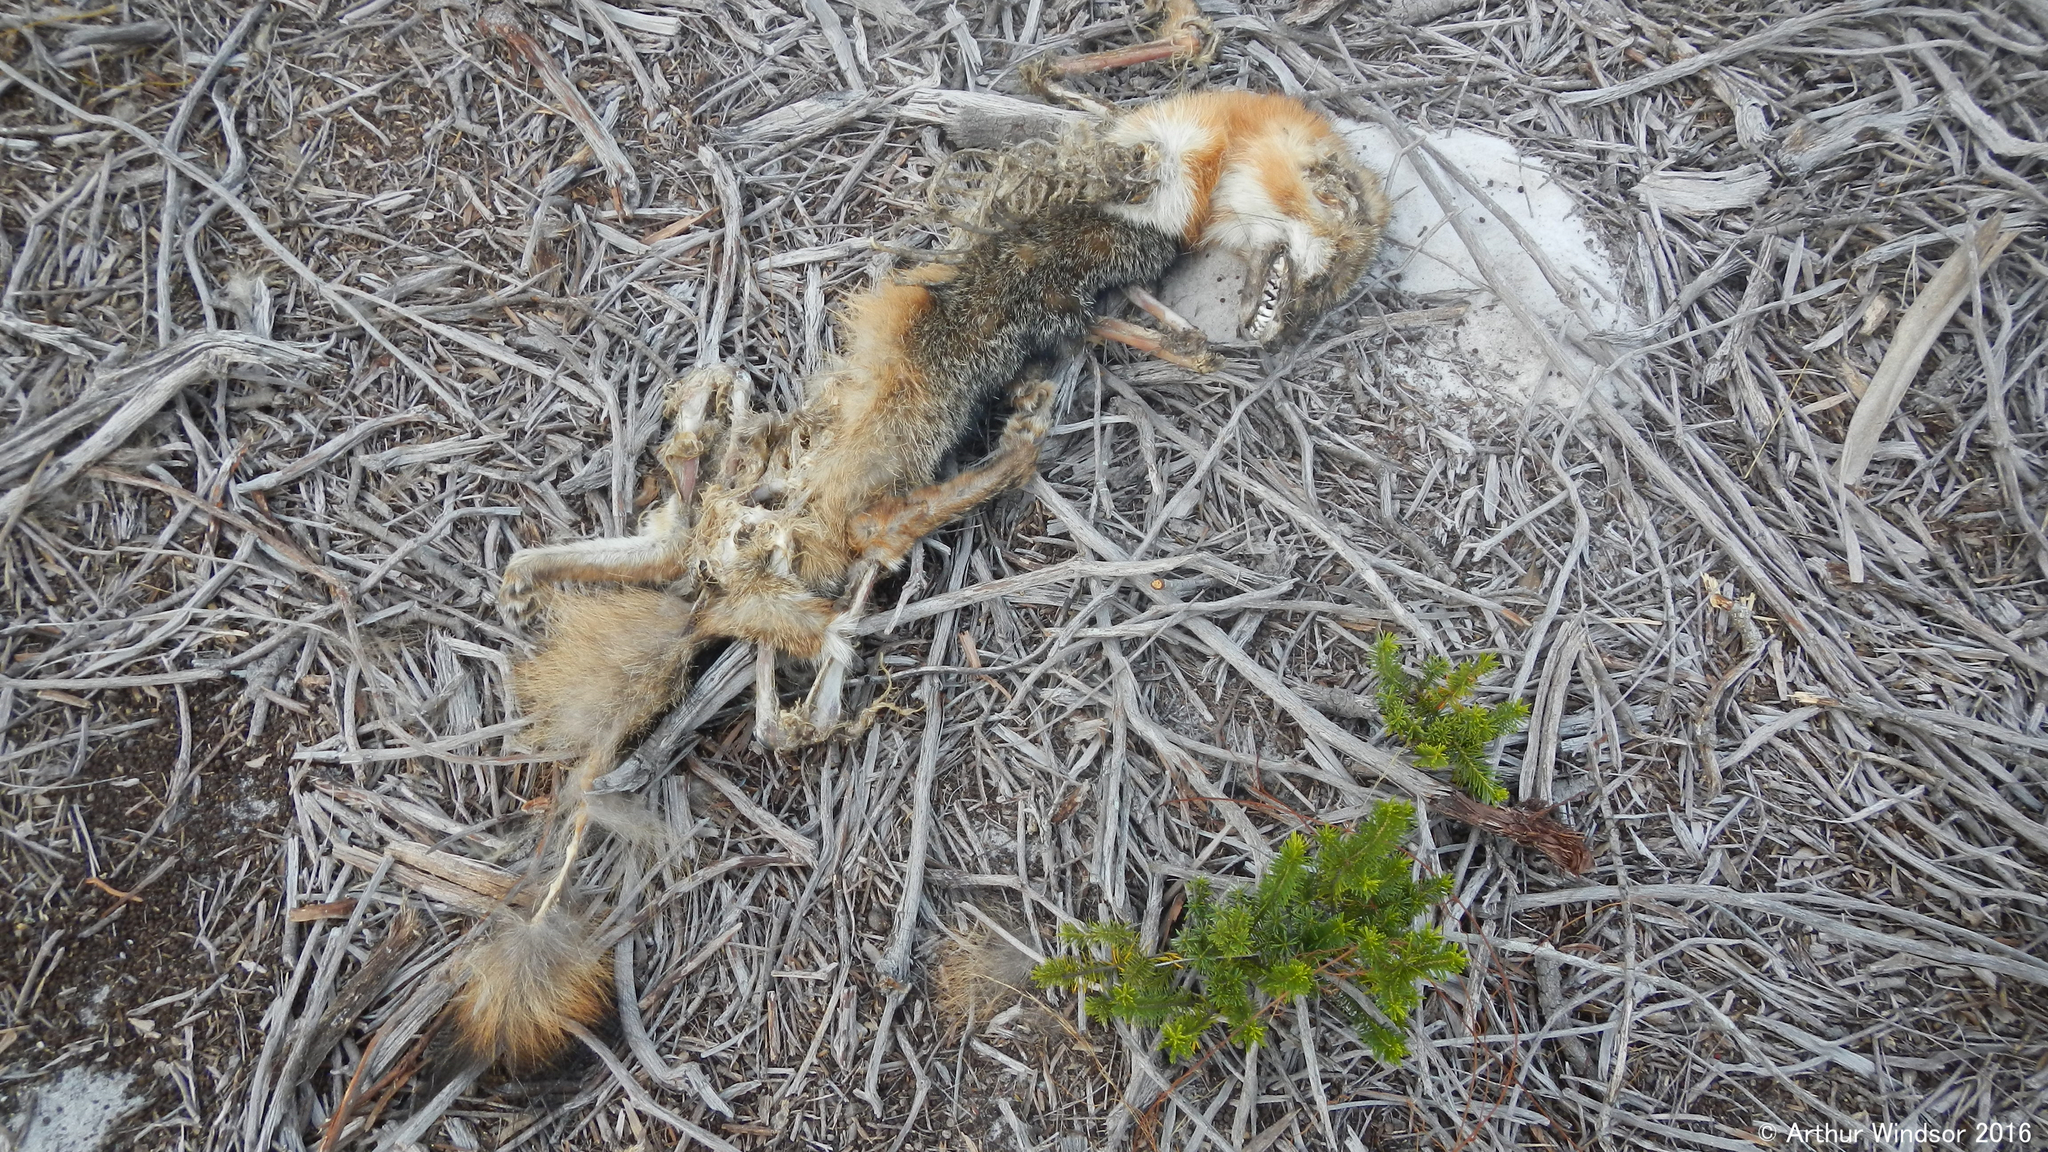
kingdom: Animalia
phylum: Chordata
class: Mammalia
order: Carnivora
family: Canidae
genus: Urocyon
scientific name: Urocyon cinereoargenteus
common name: Gray fox
